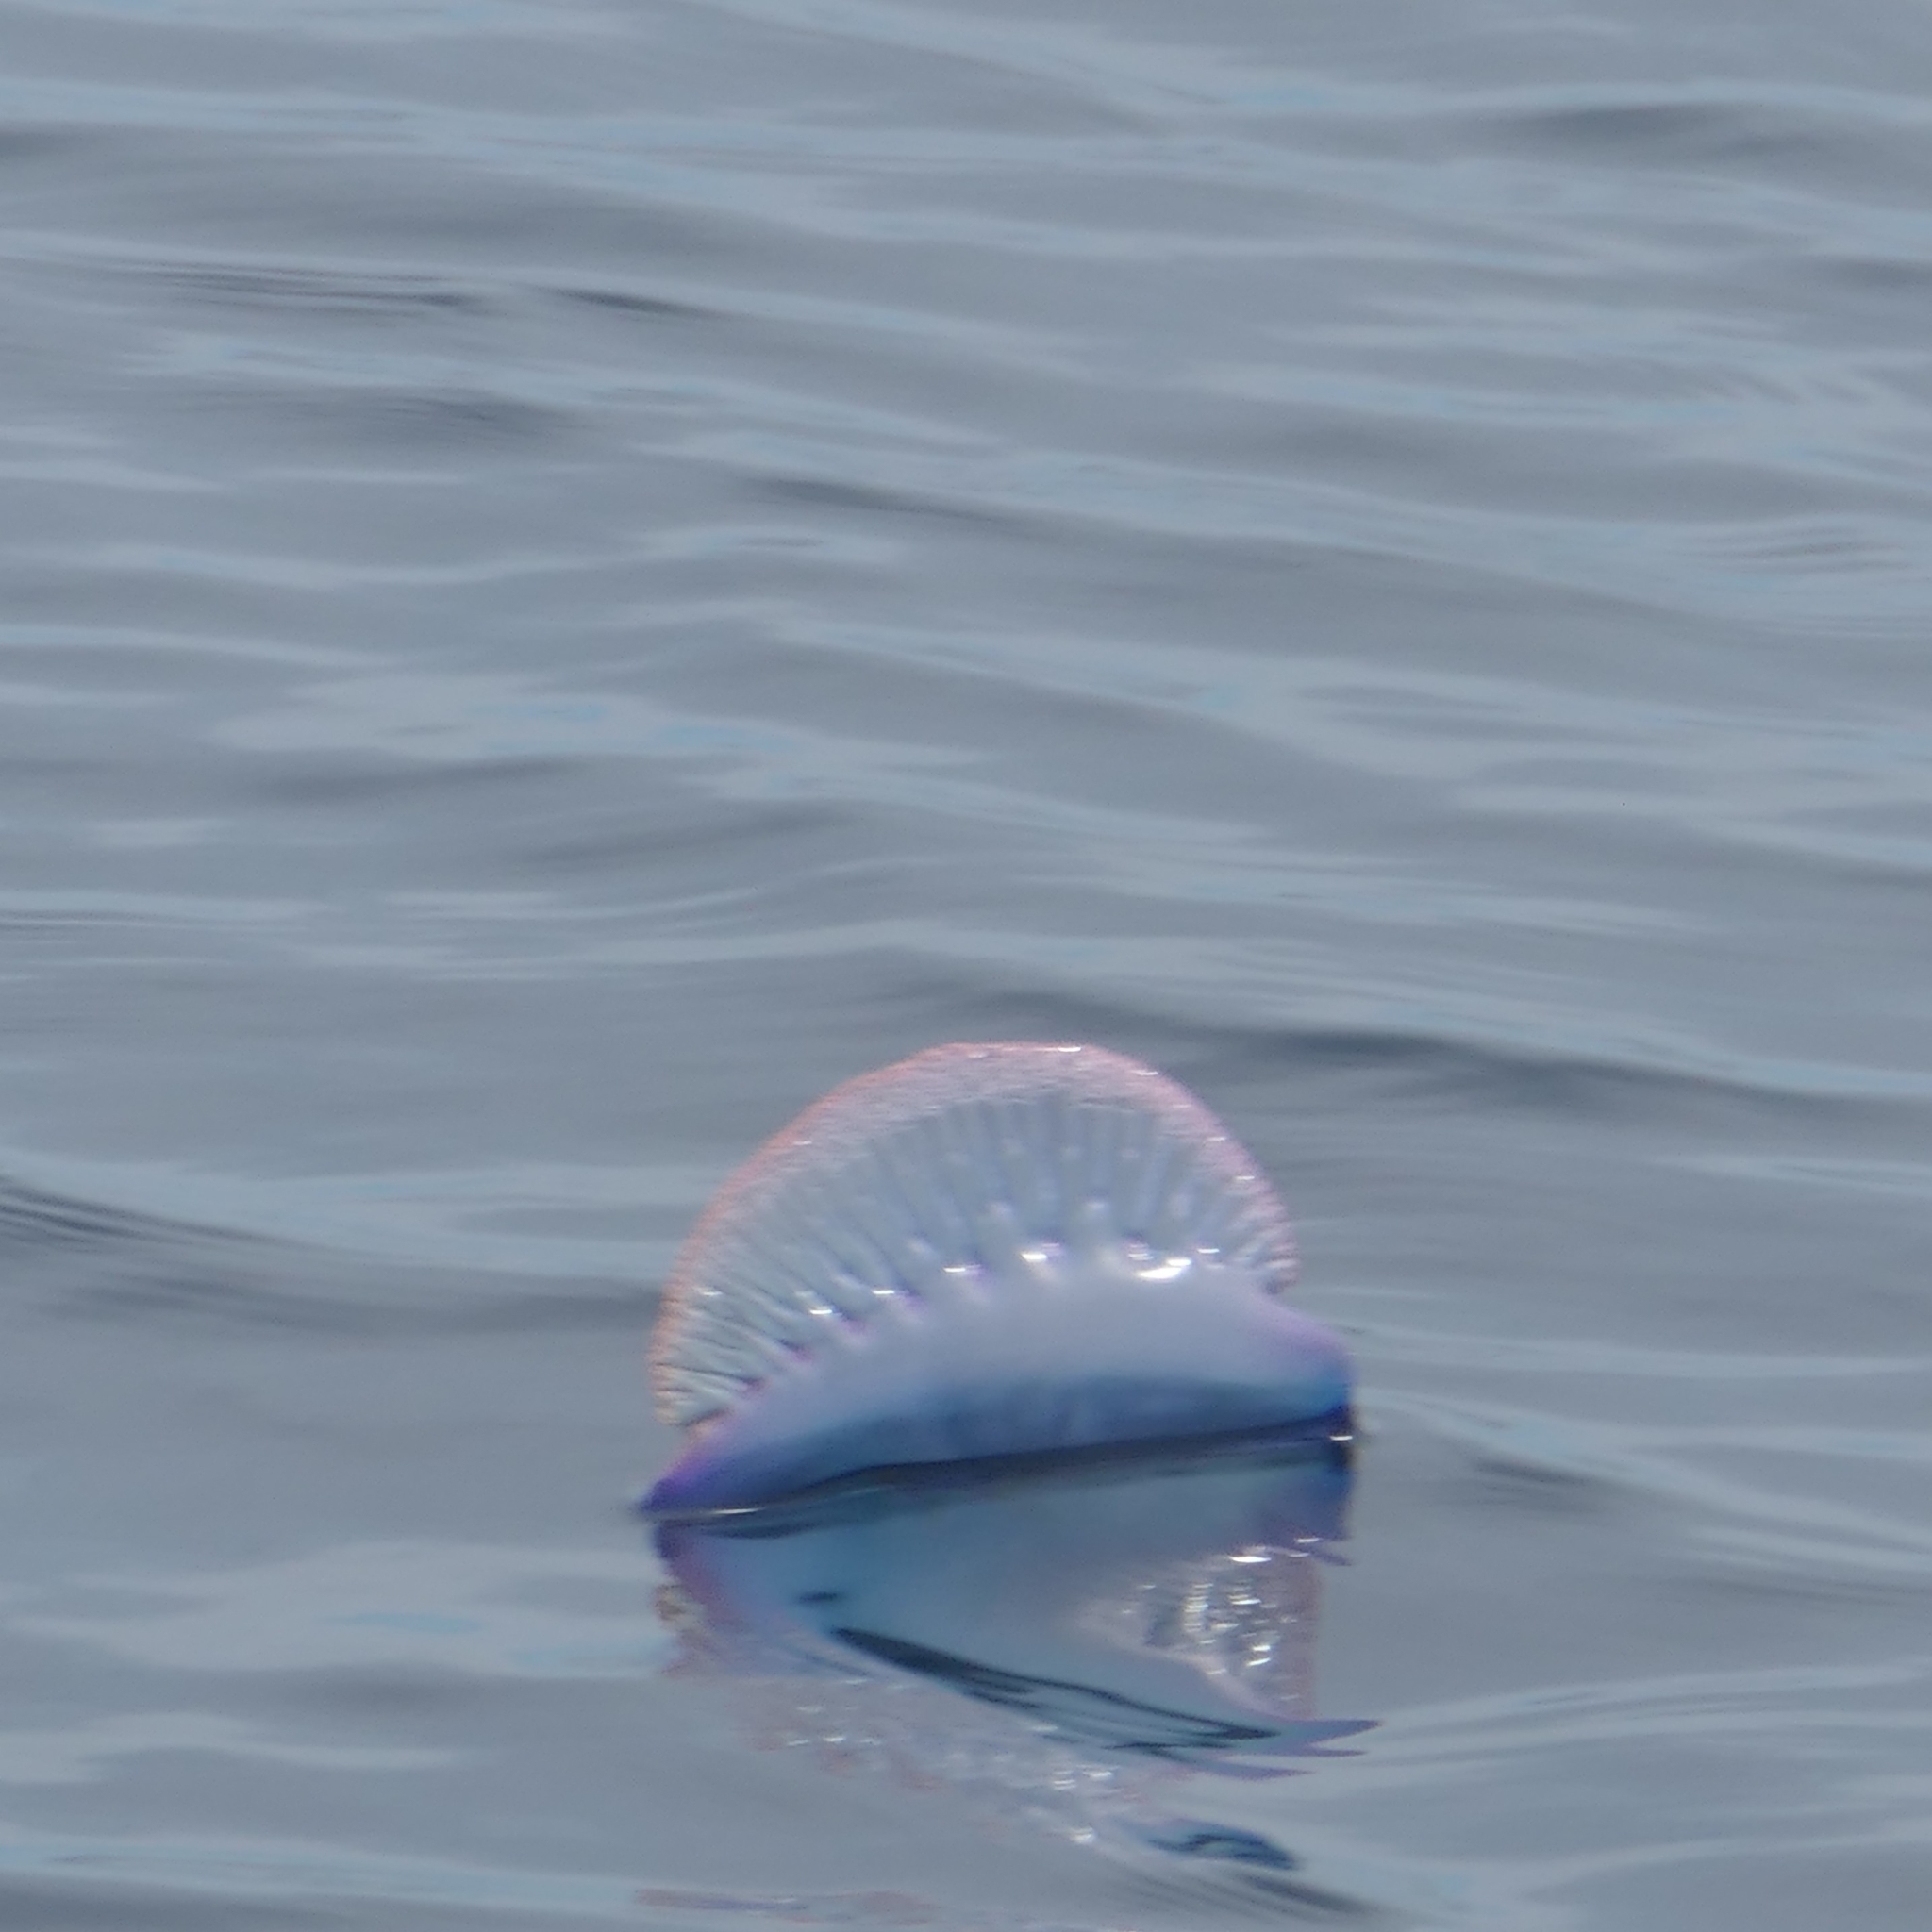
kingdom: Animalia
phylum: Cnidaria
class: Hydrozoa
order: Siphonophorae
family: Physaliidae
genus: Physalia
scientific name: Physalia physalis
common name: Portuguese man-of-war
